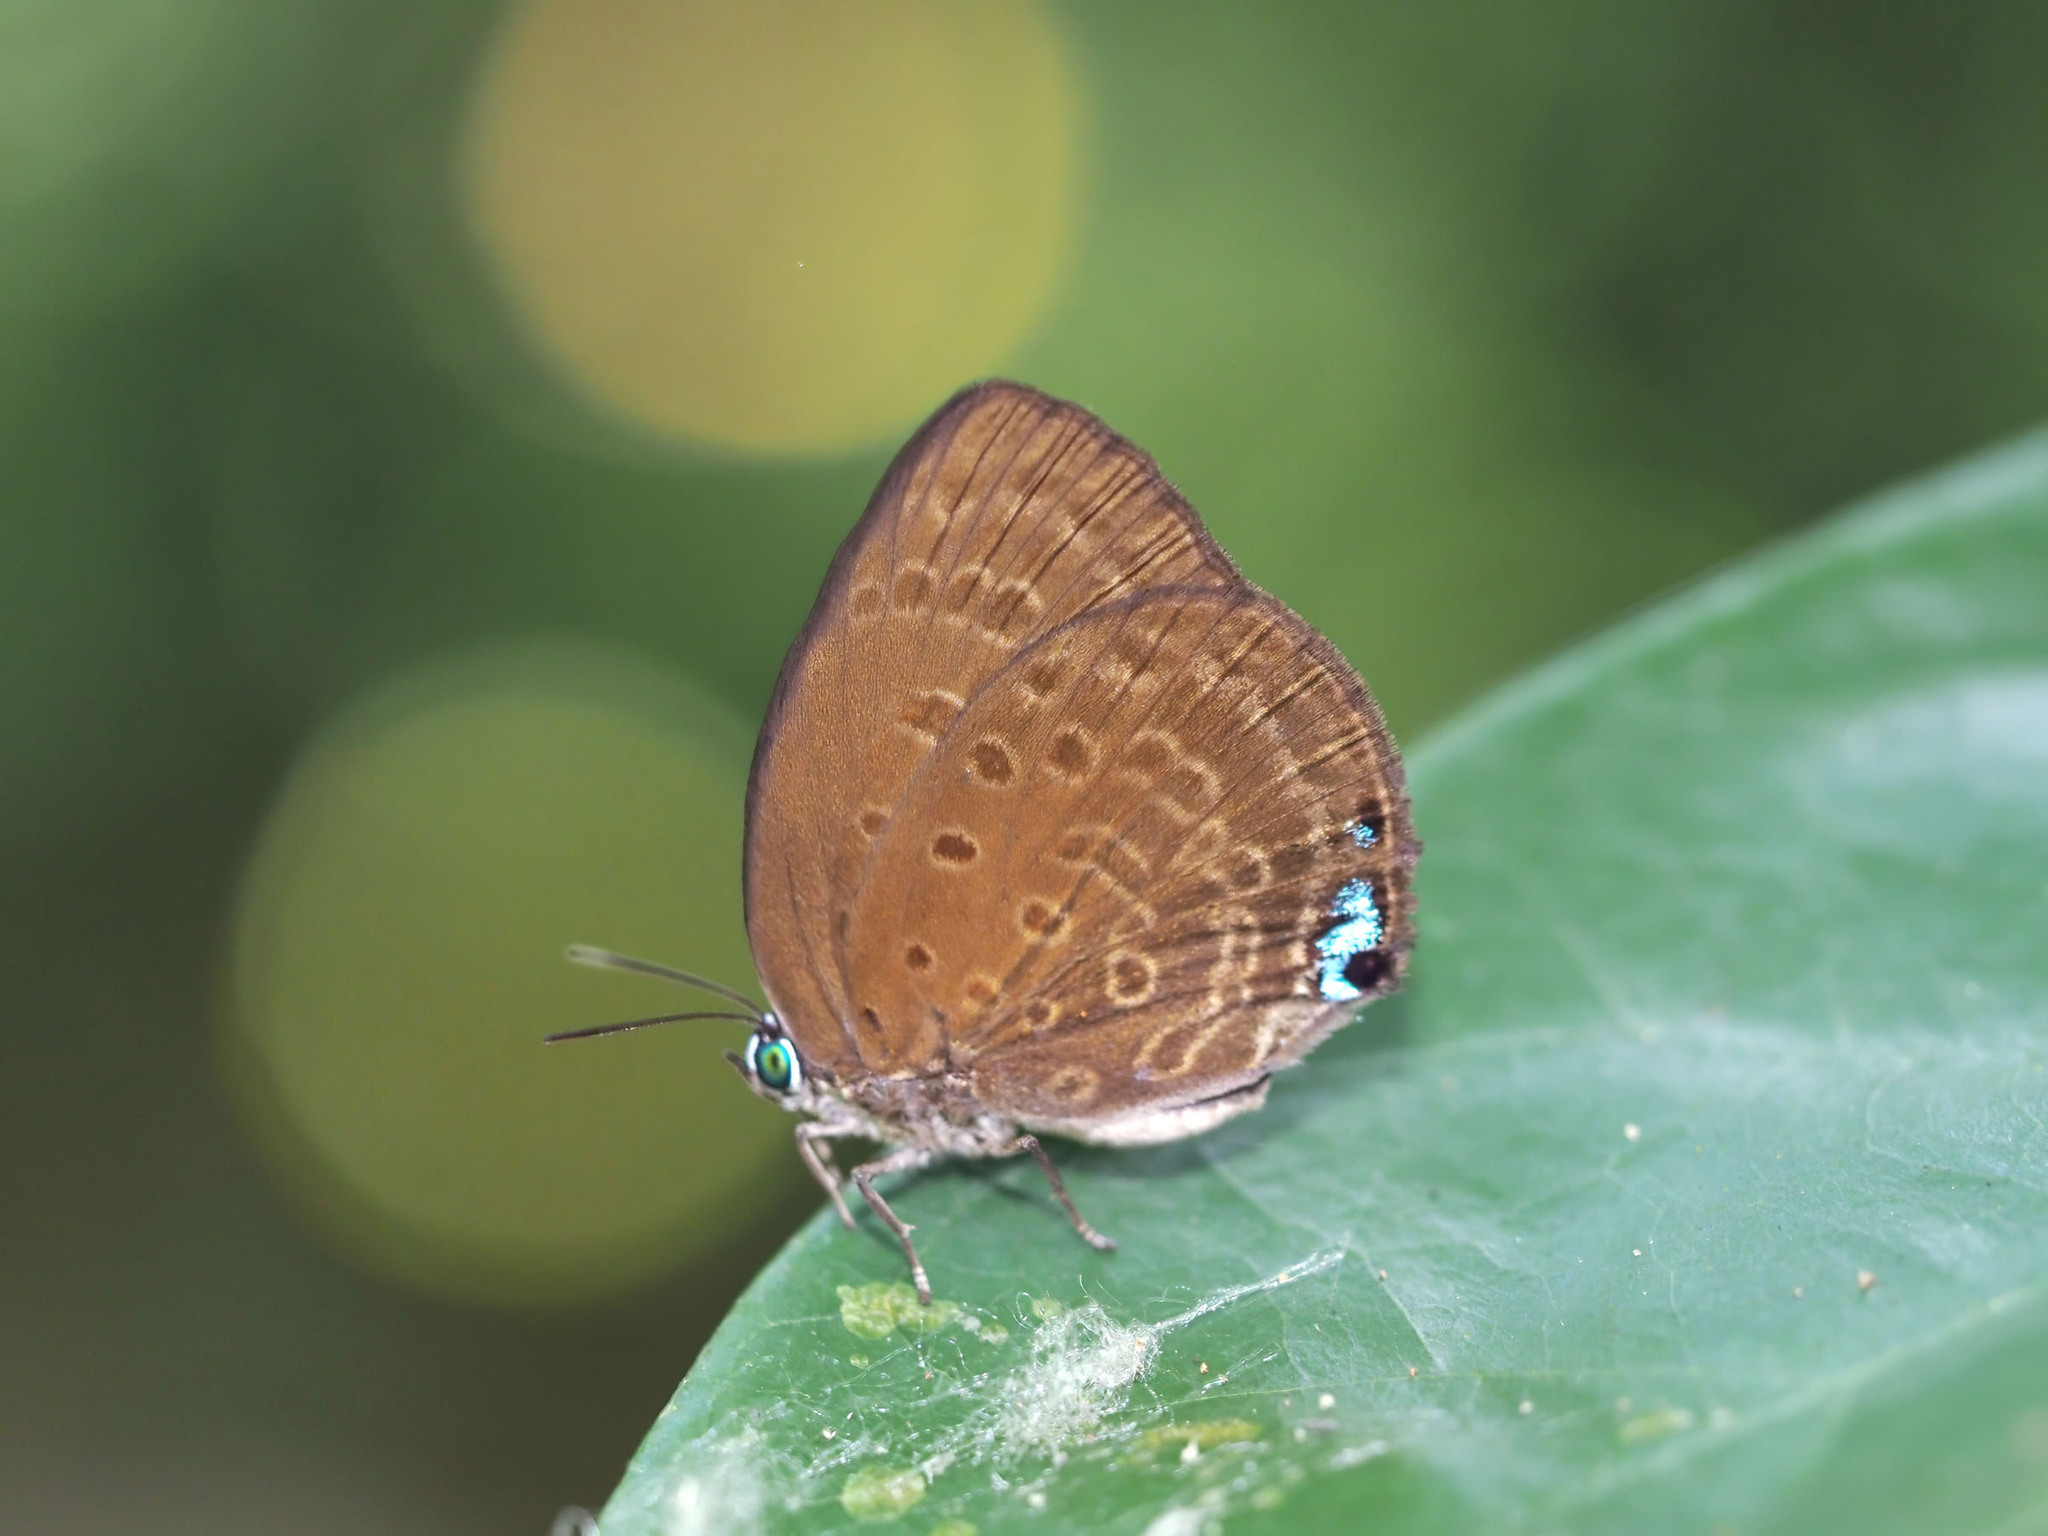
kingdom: Animalia
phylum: Arthropoda
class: Insecta
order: Lepidoptera
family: Lycaenidae
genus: Arhopala
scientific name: Arhopala major
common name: Major yellow oakblue
